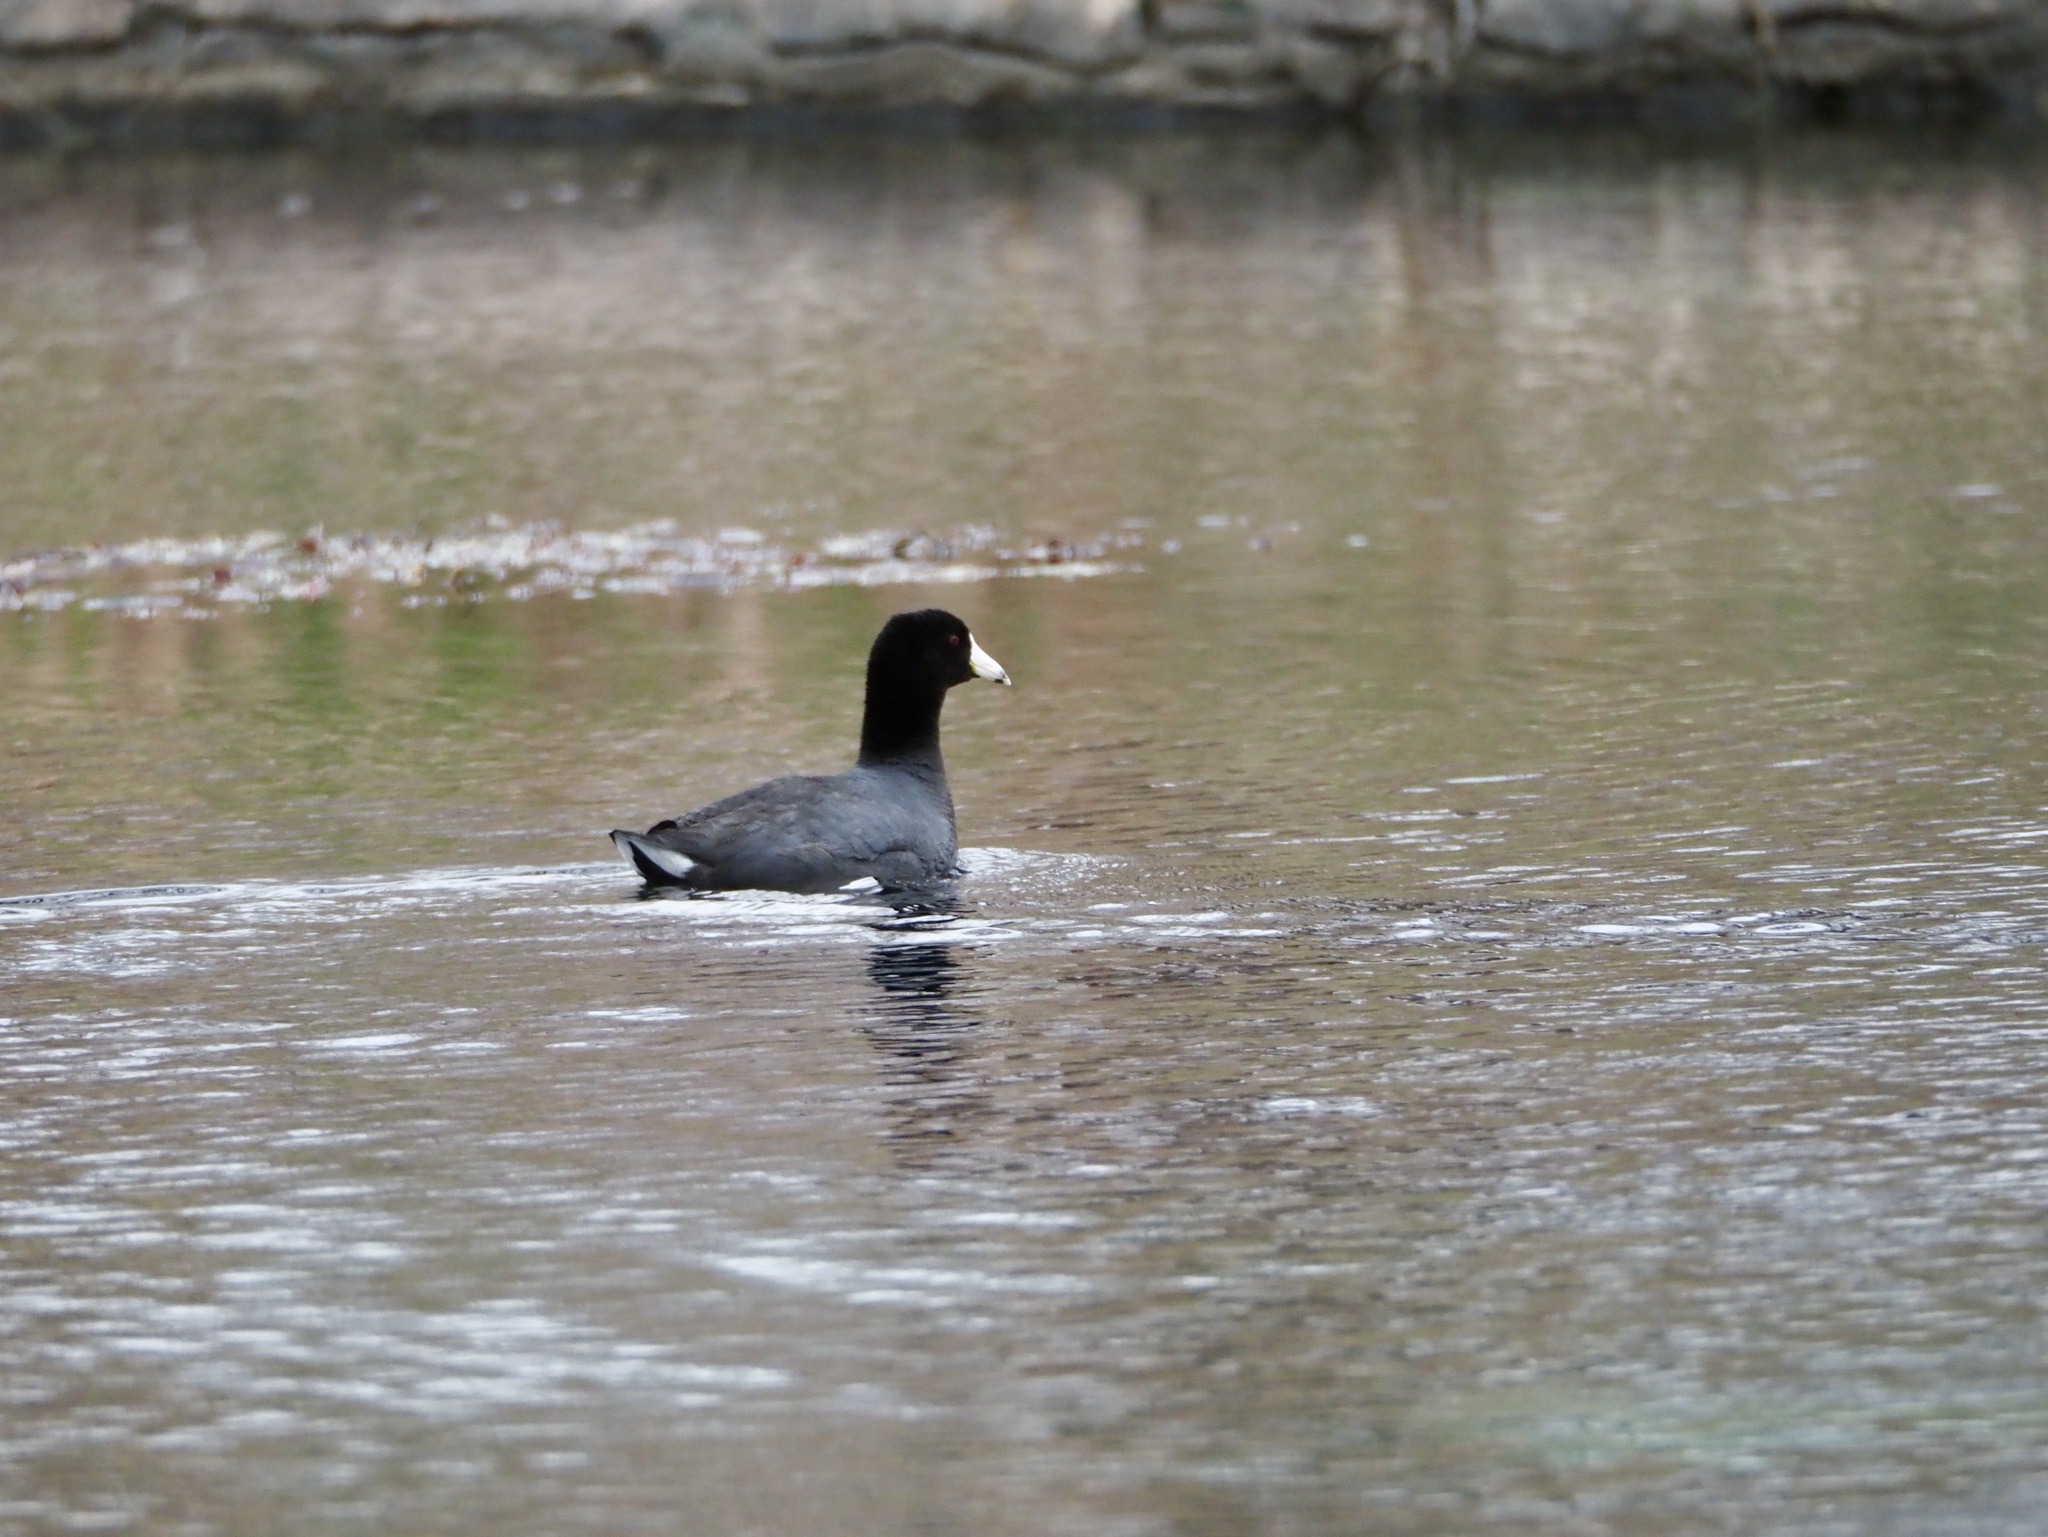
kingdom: Animalia
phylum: Chordata
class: Aves
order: Gruiformes
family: Rallidae
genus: Fulica
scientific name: Fulica americana
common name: American coot
